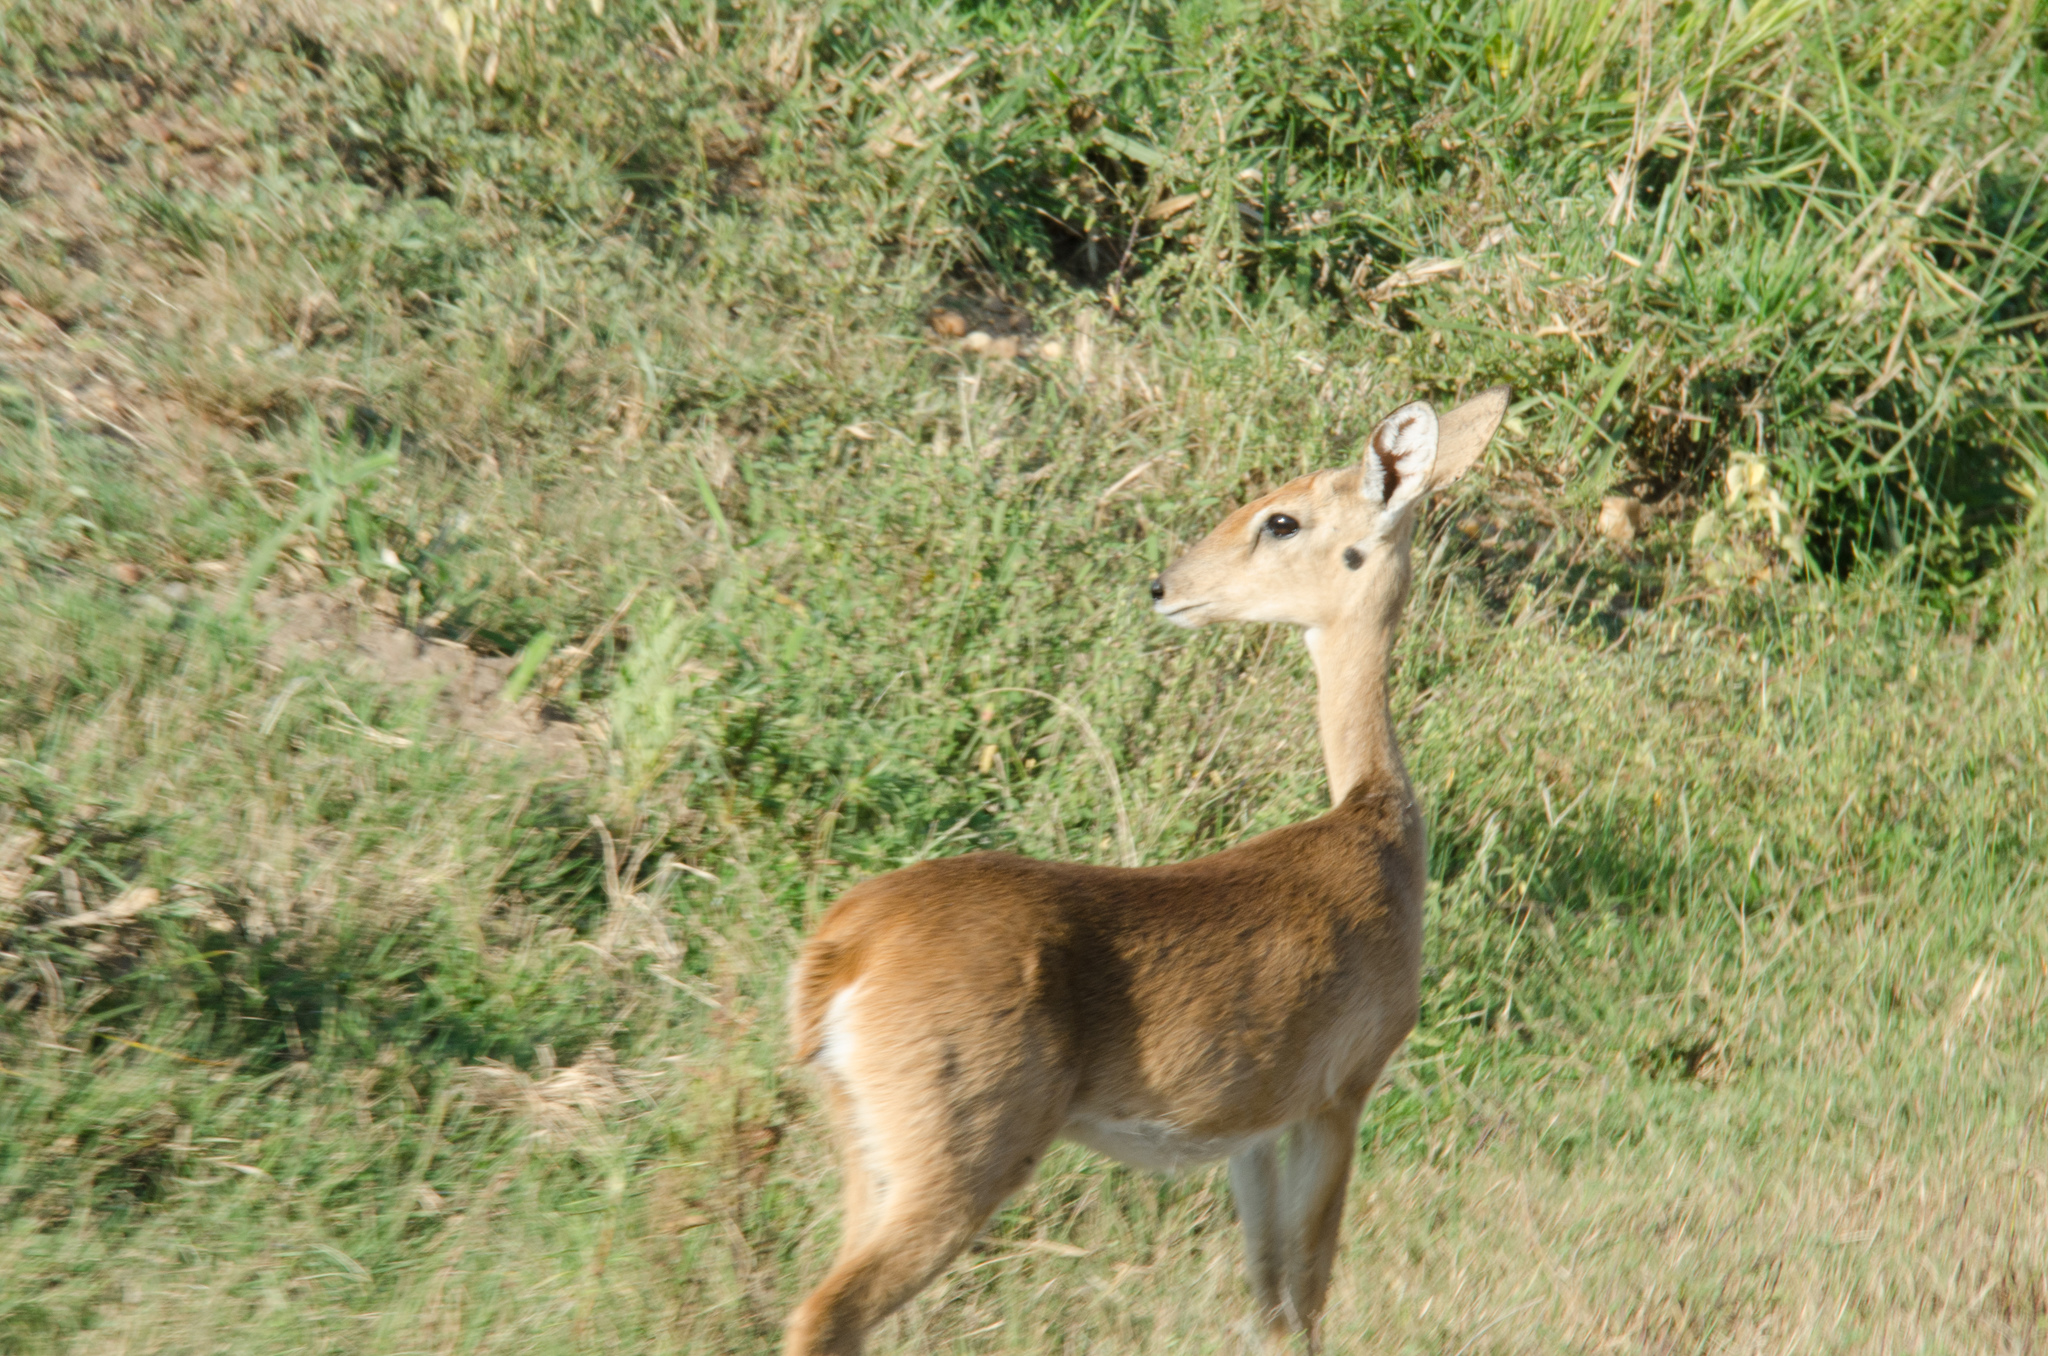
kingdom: Animalia
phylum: Chordata
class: Mammalia
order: Artiodactyla
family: Bovidae
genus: Ourebia
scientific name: Ourebia ourebi
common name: Oribi
